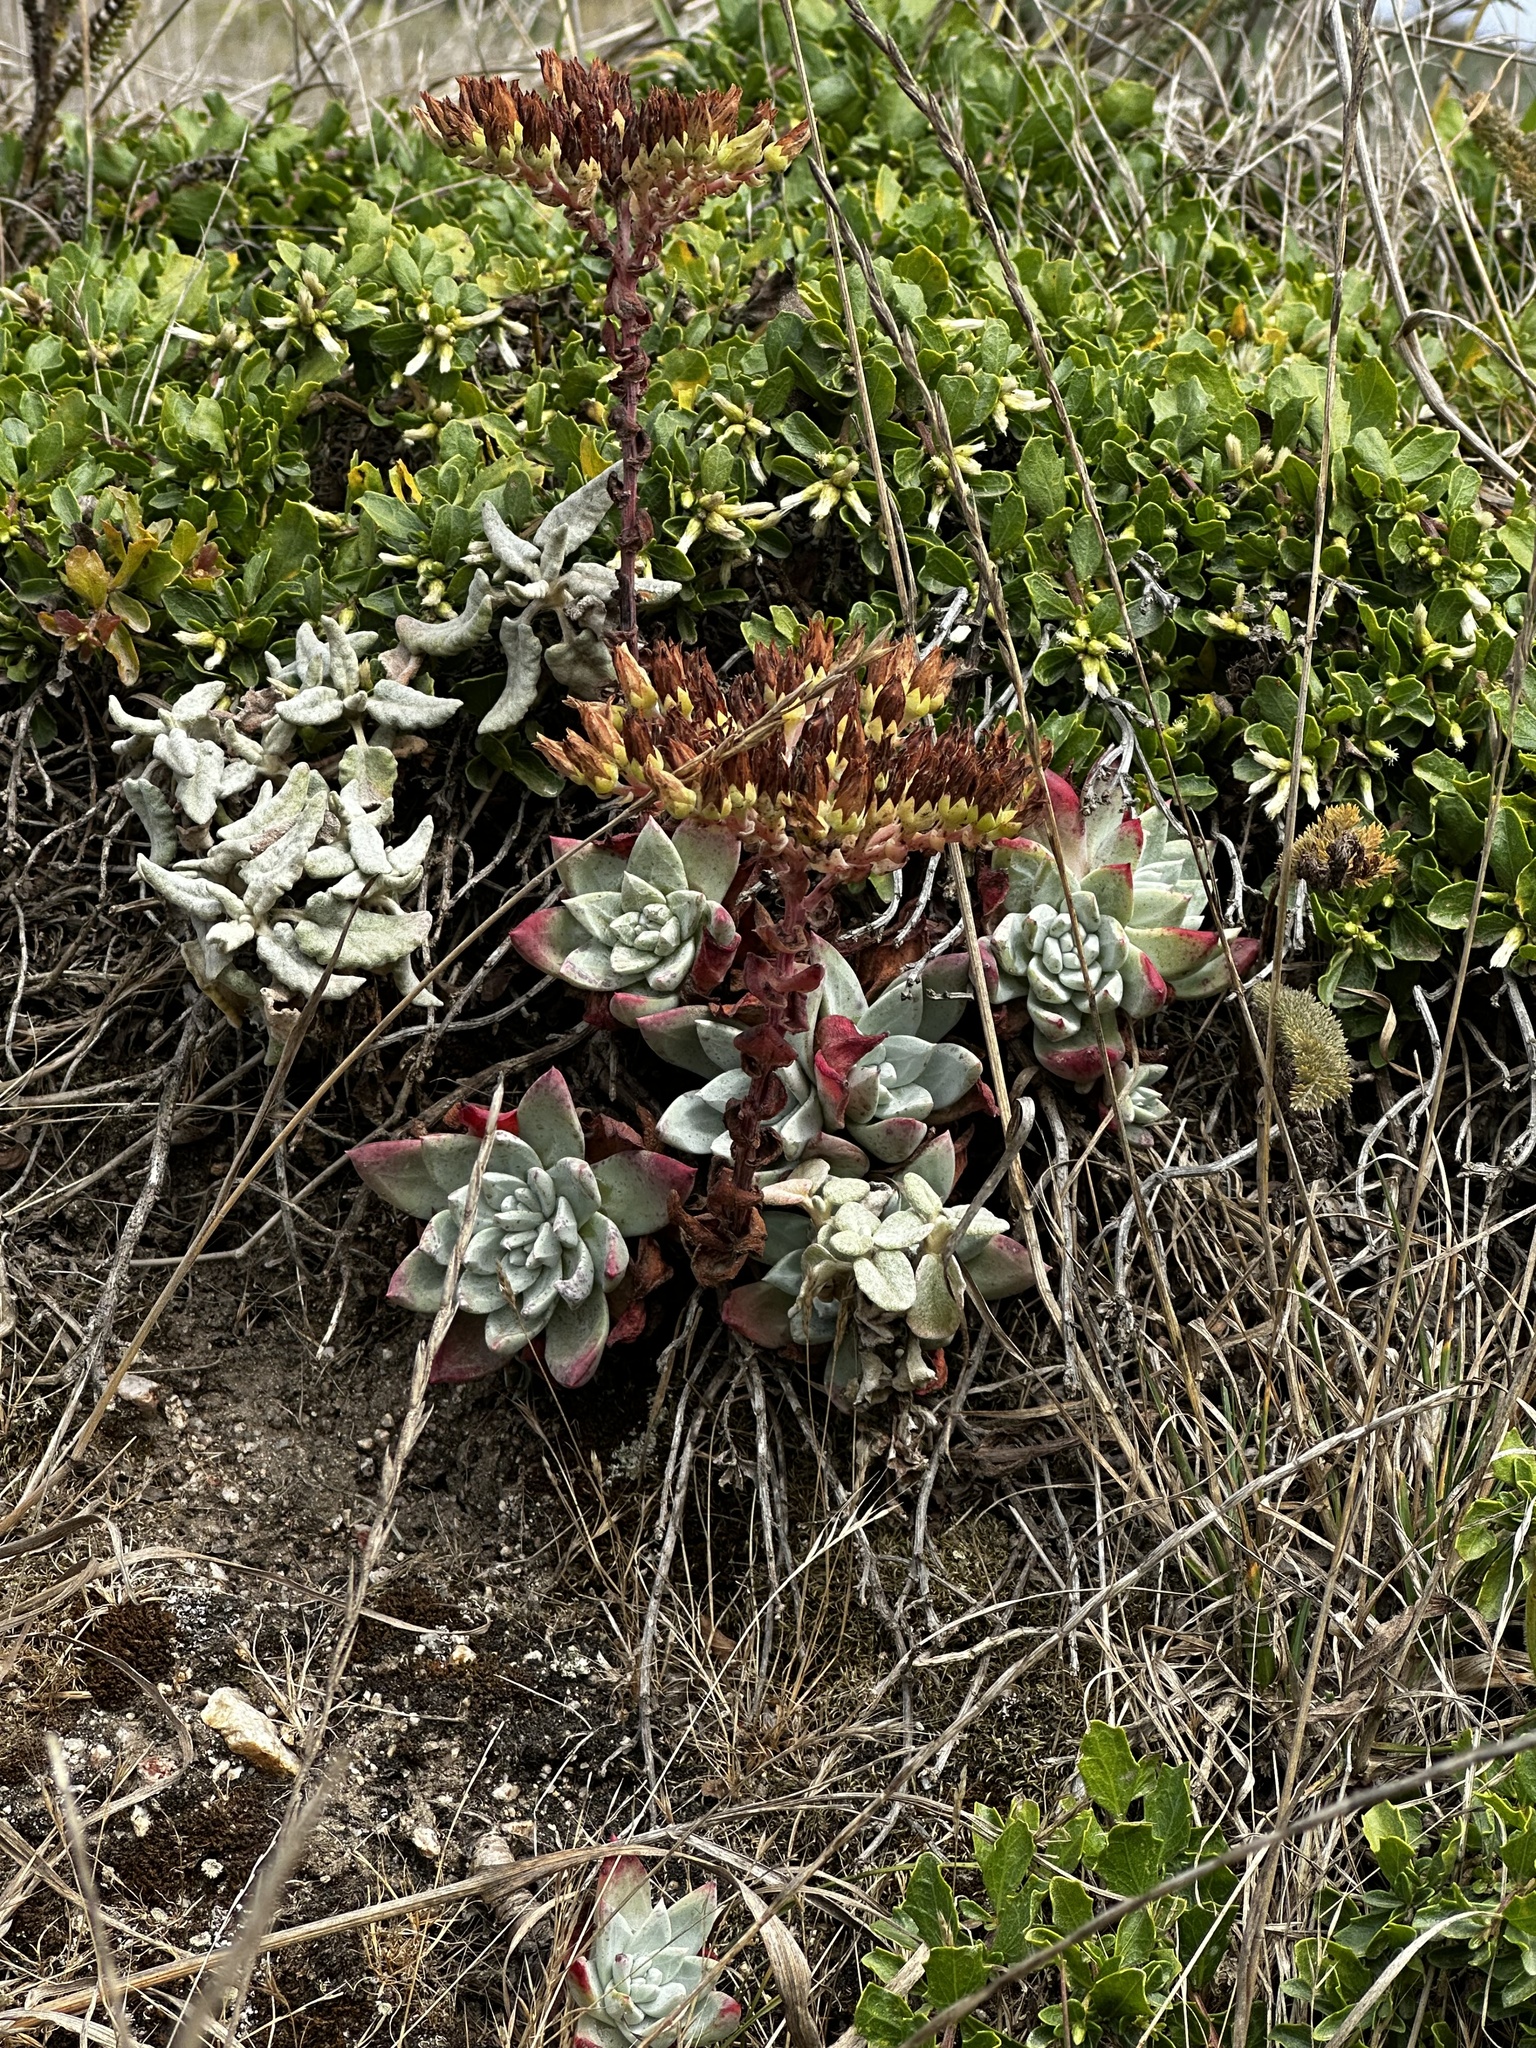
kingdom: Plantae
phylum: Tracheophyta
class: Magnoliopsida
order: Saxifragales
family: Crassulaceae
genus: Dudleya
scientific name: Dudleya farinosa
